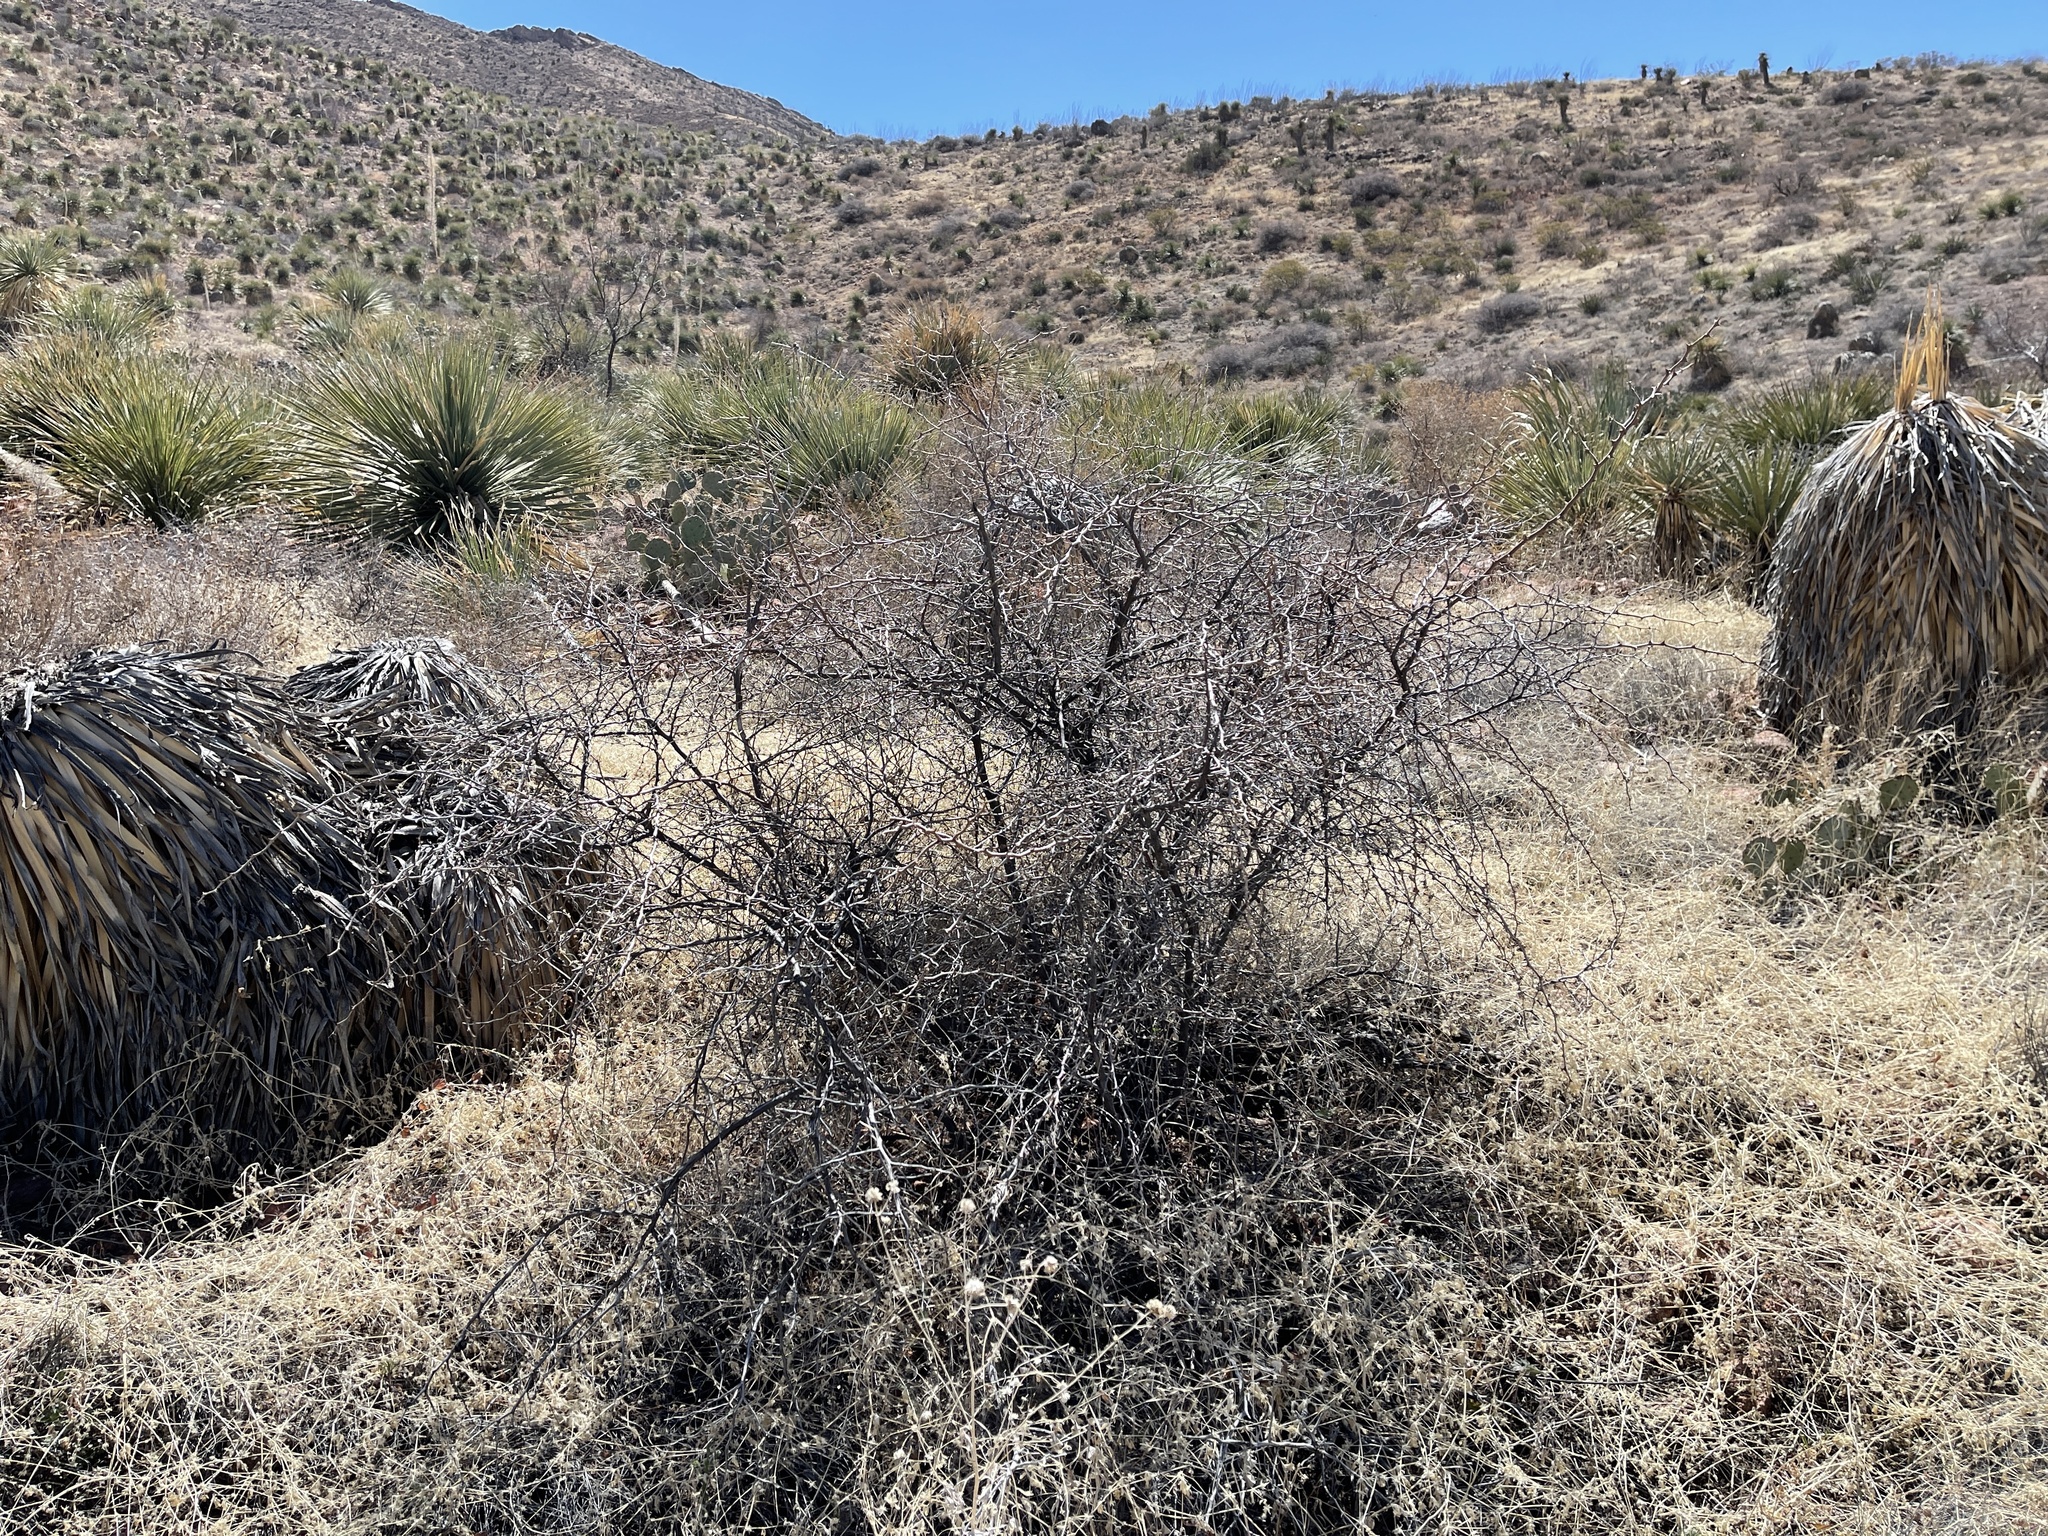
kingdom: Plantae
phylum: Tracheophyta
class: Magnoliopsida
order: Fabales
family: Fabaceae
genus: Mimosa
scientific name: Mimosa aculeaticarpa
